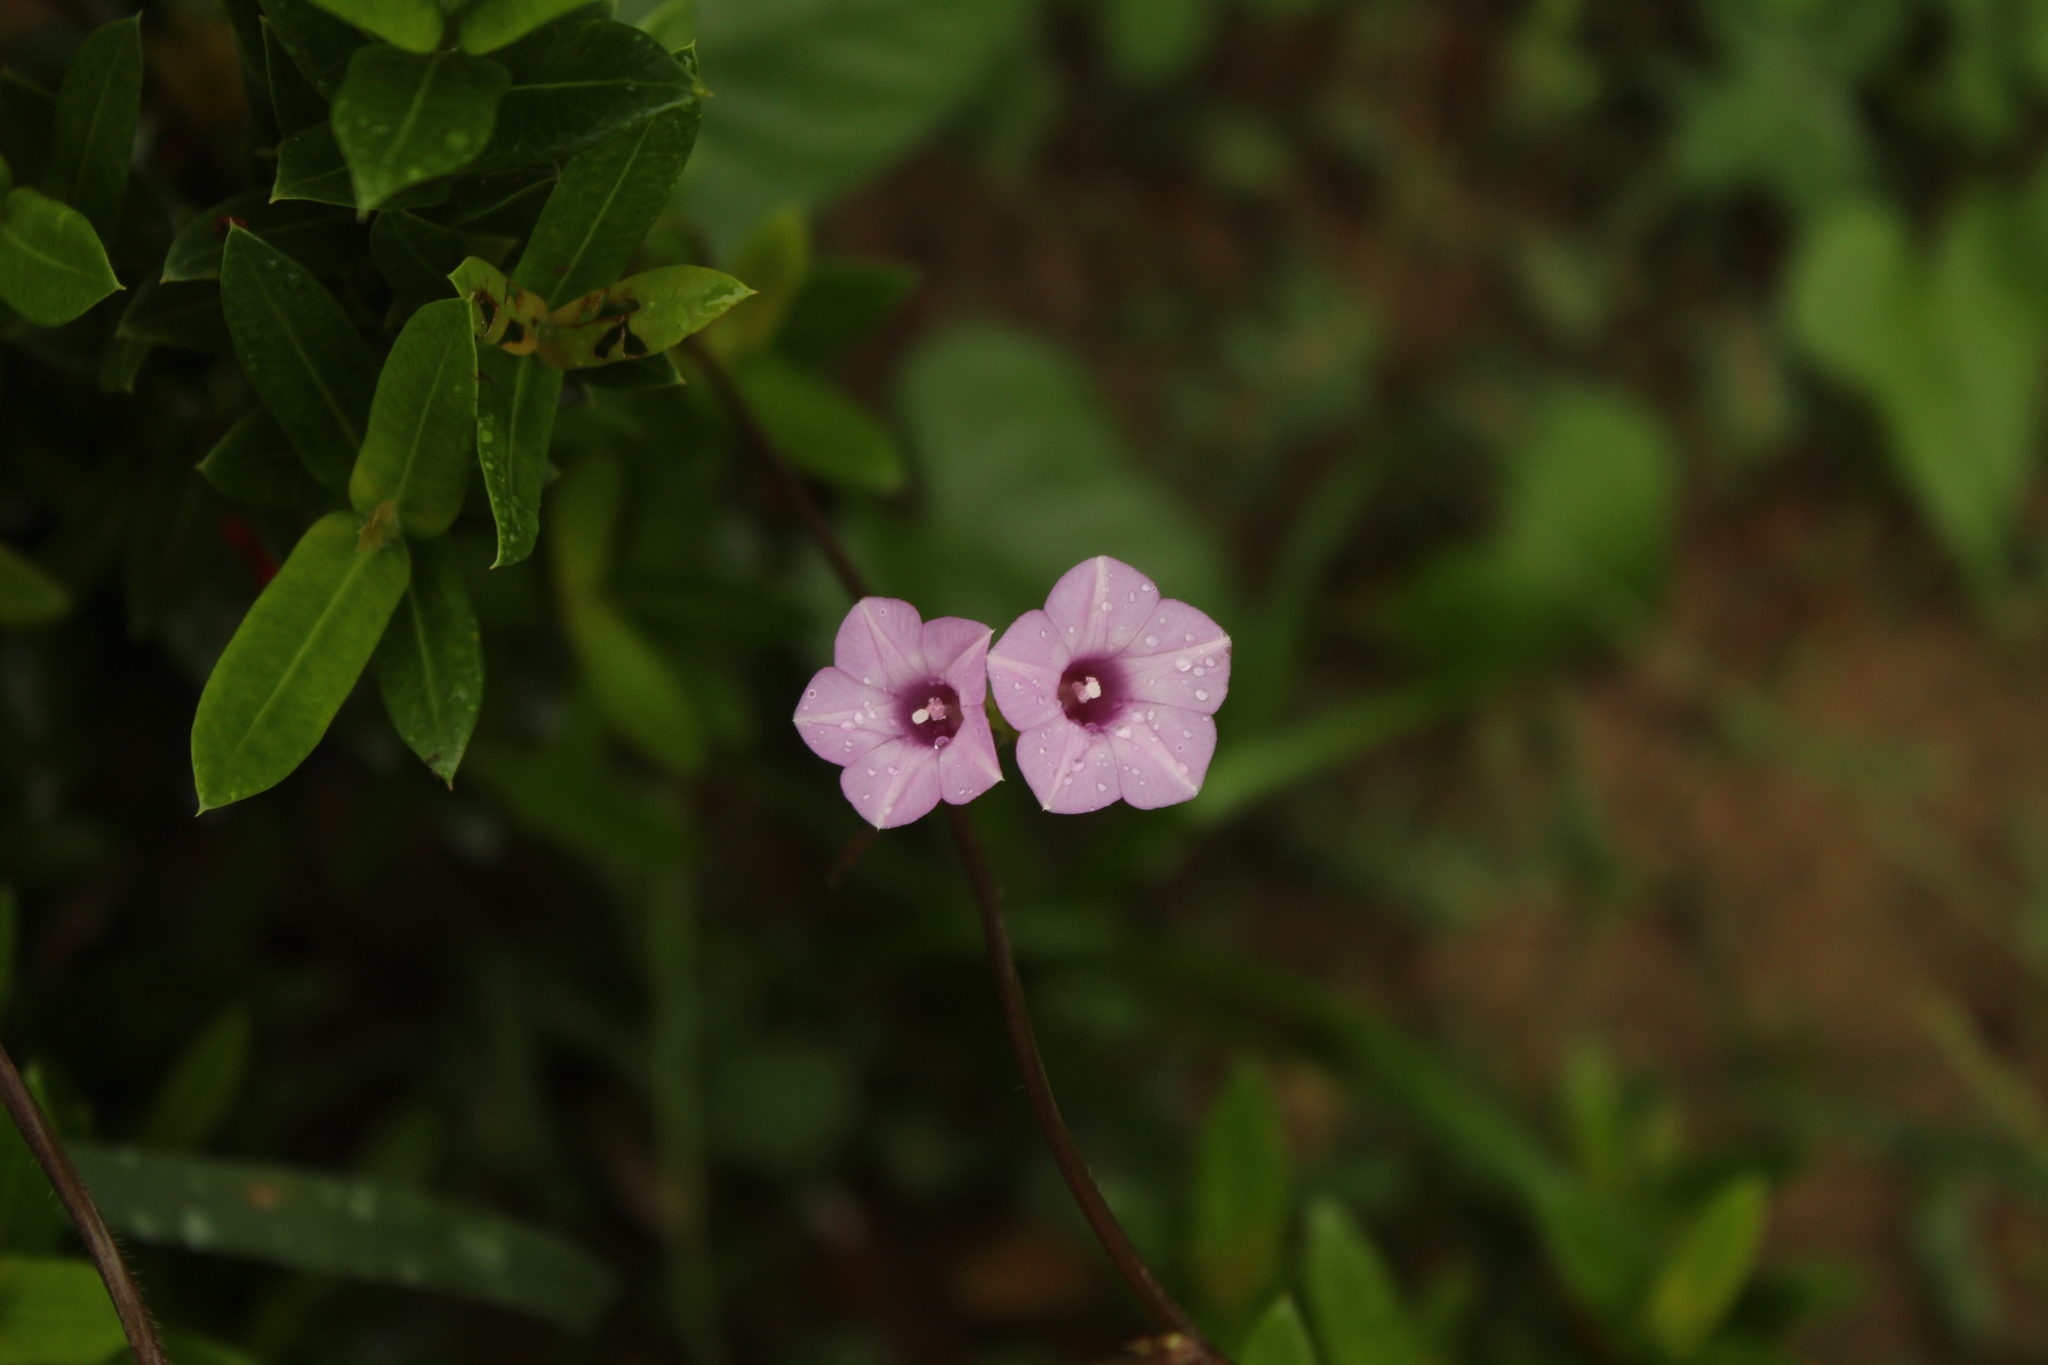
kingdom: Plantae
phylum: Tracheophyta
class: Magnoliopsida
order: Solanales
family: Convolvulaceae
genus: Ipomoea
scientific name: Ipomoea triloba
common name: Little-bell
